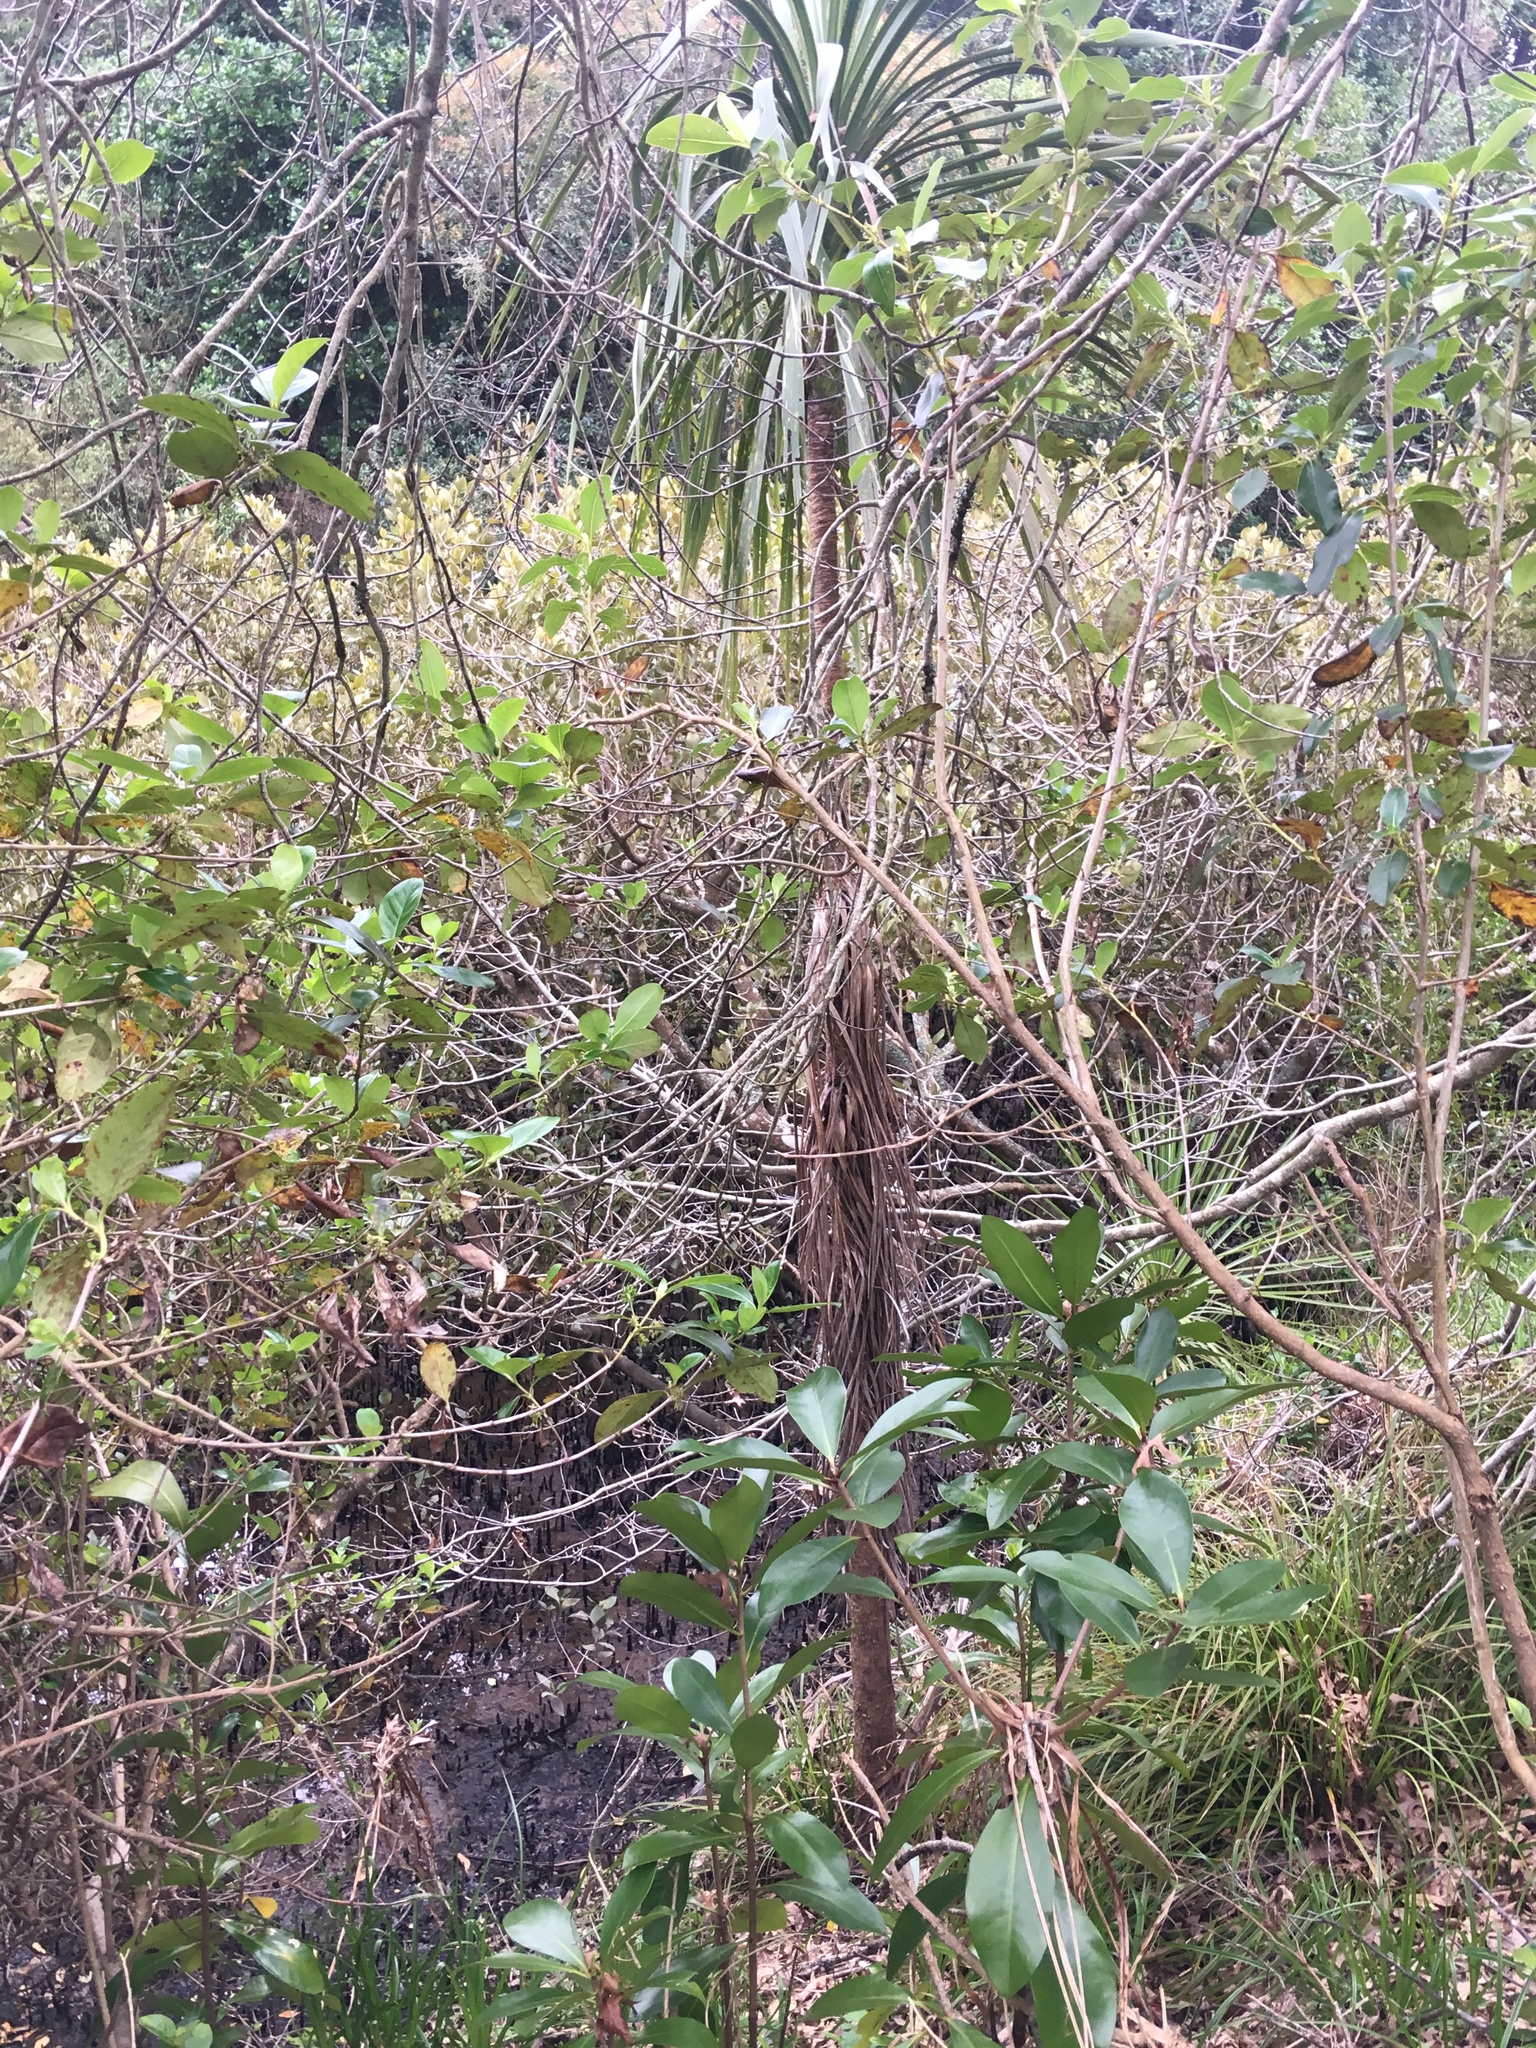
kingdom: Plantae
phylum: Tracheophyta
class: Liliopsida
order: Asparagales
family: Asparagaceae
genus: Cordyline
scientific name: Cordyline australis
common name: Cabbage-palm
